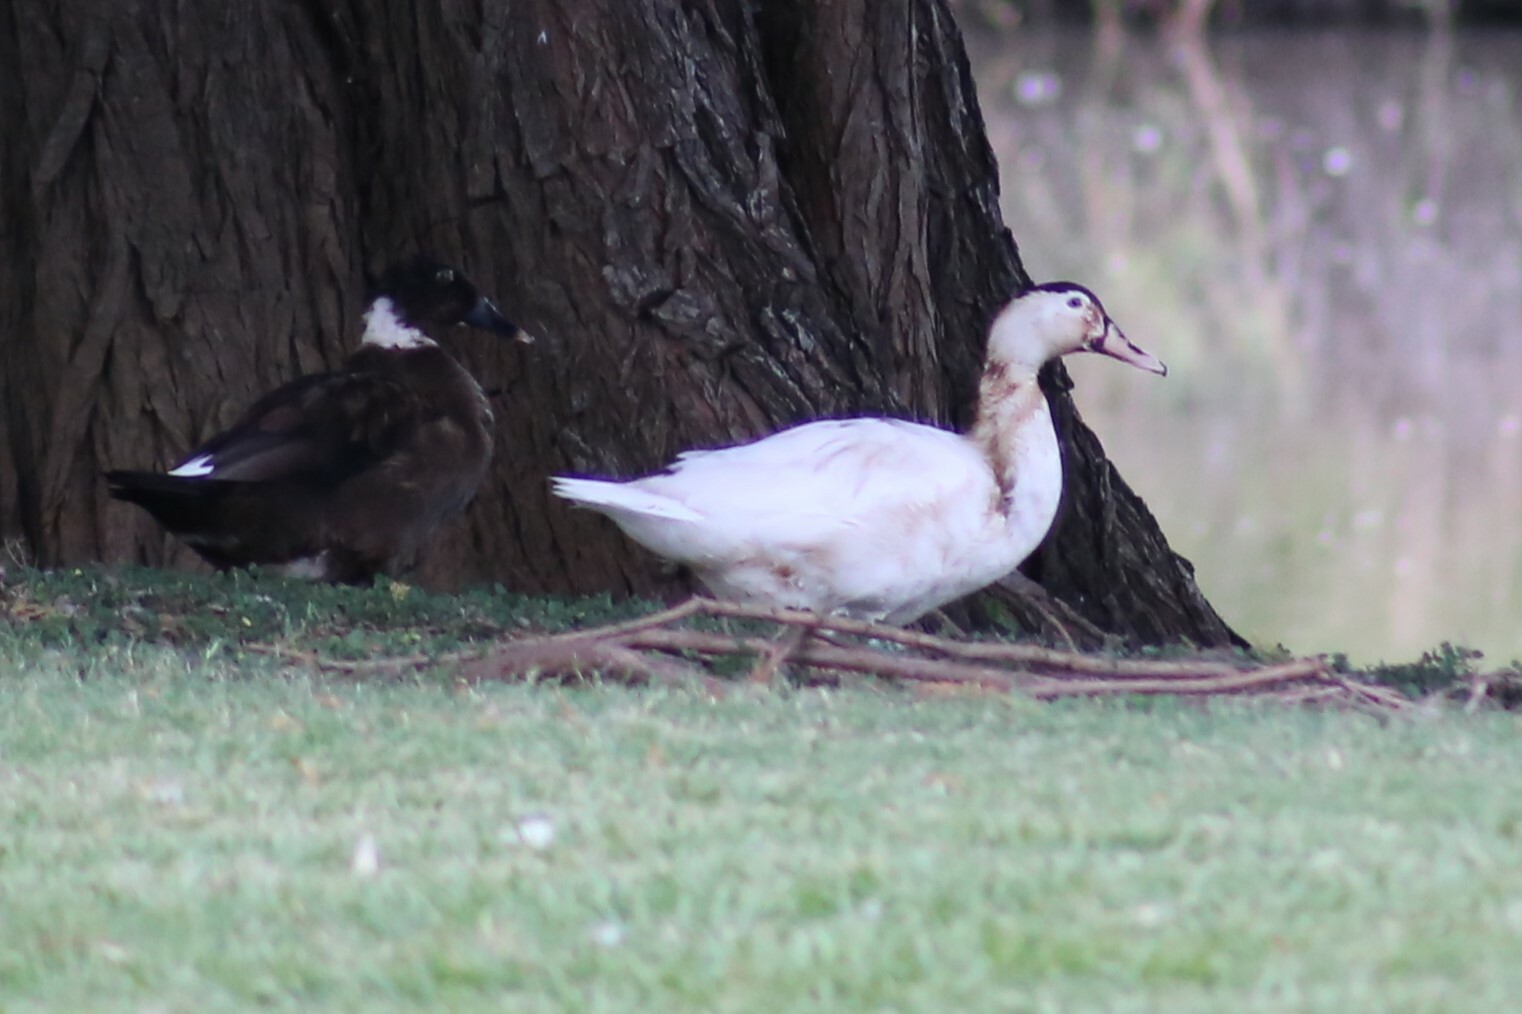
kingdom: Animalia
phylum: Chordata
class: Aves
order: Anseriformes
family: Anatidae
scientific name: Anatidae
